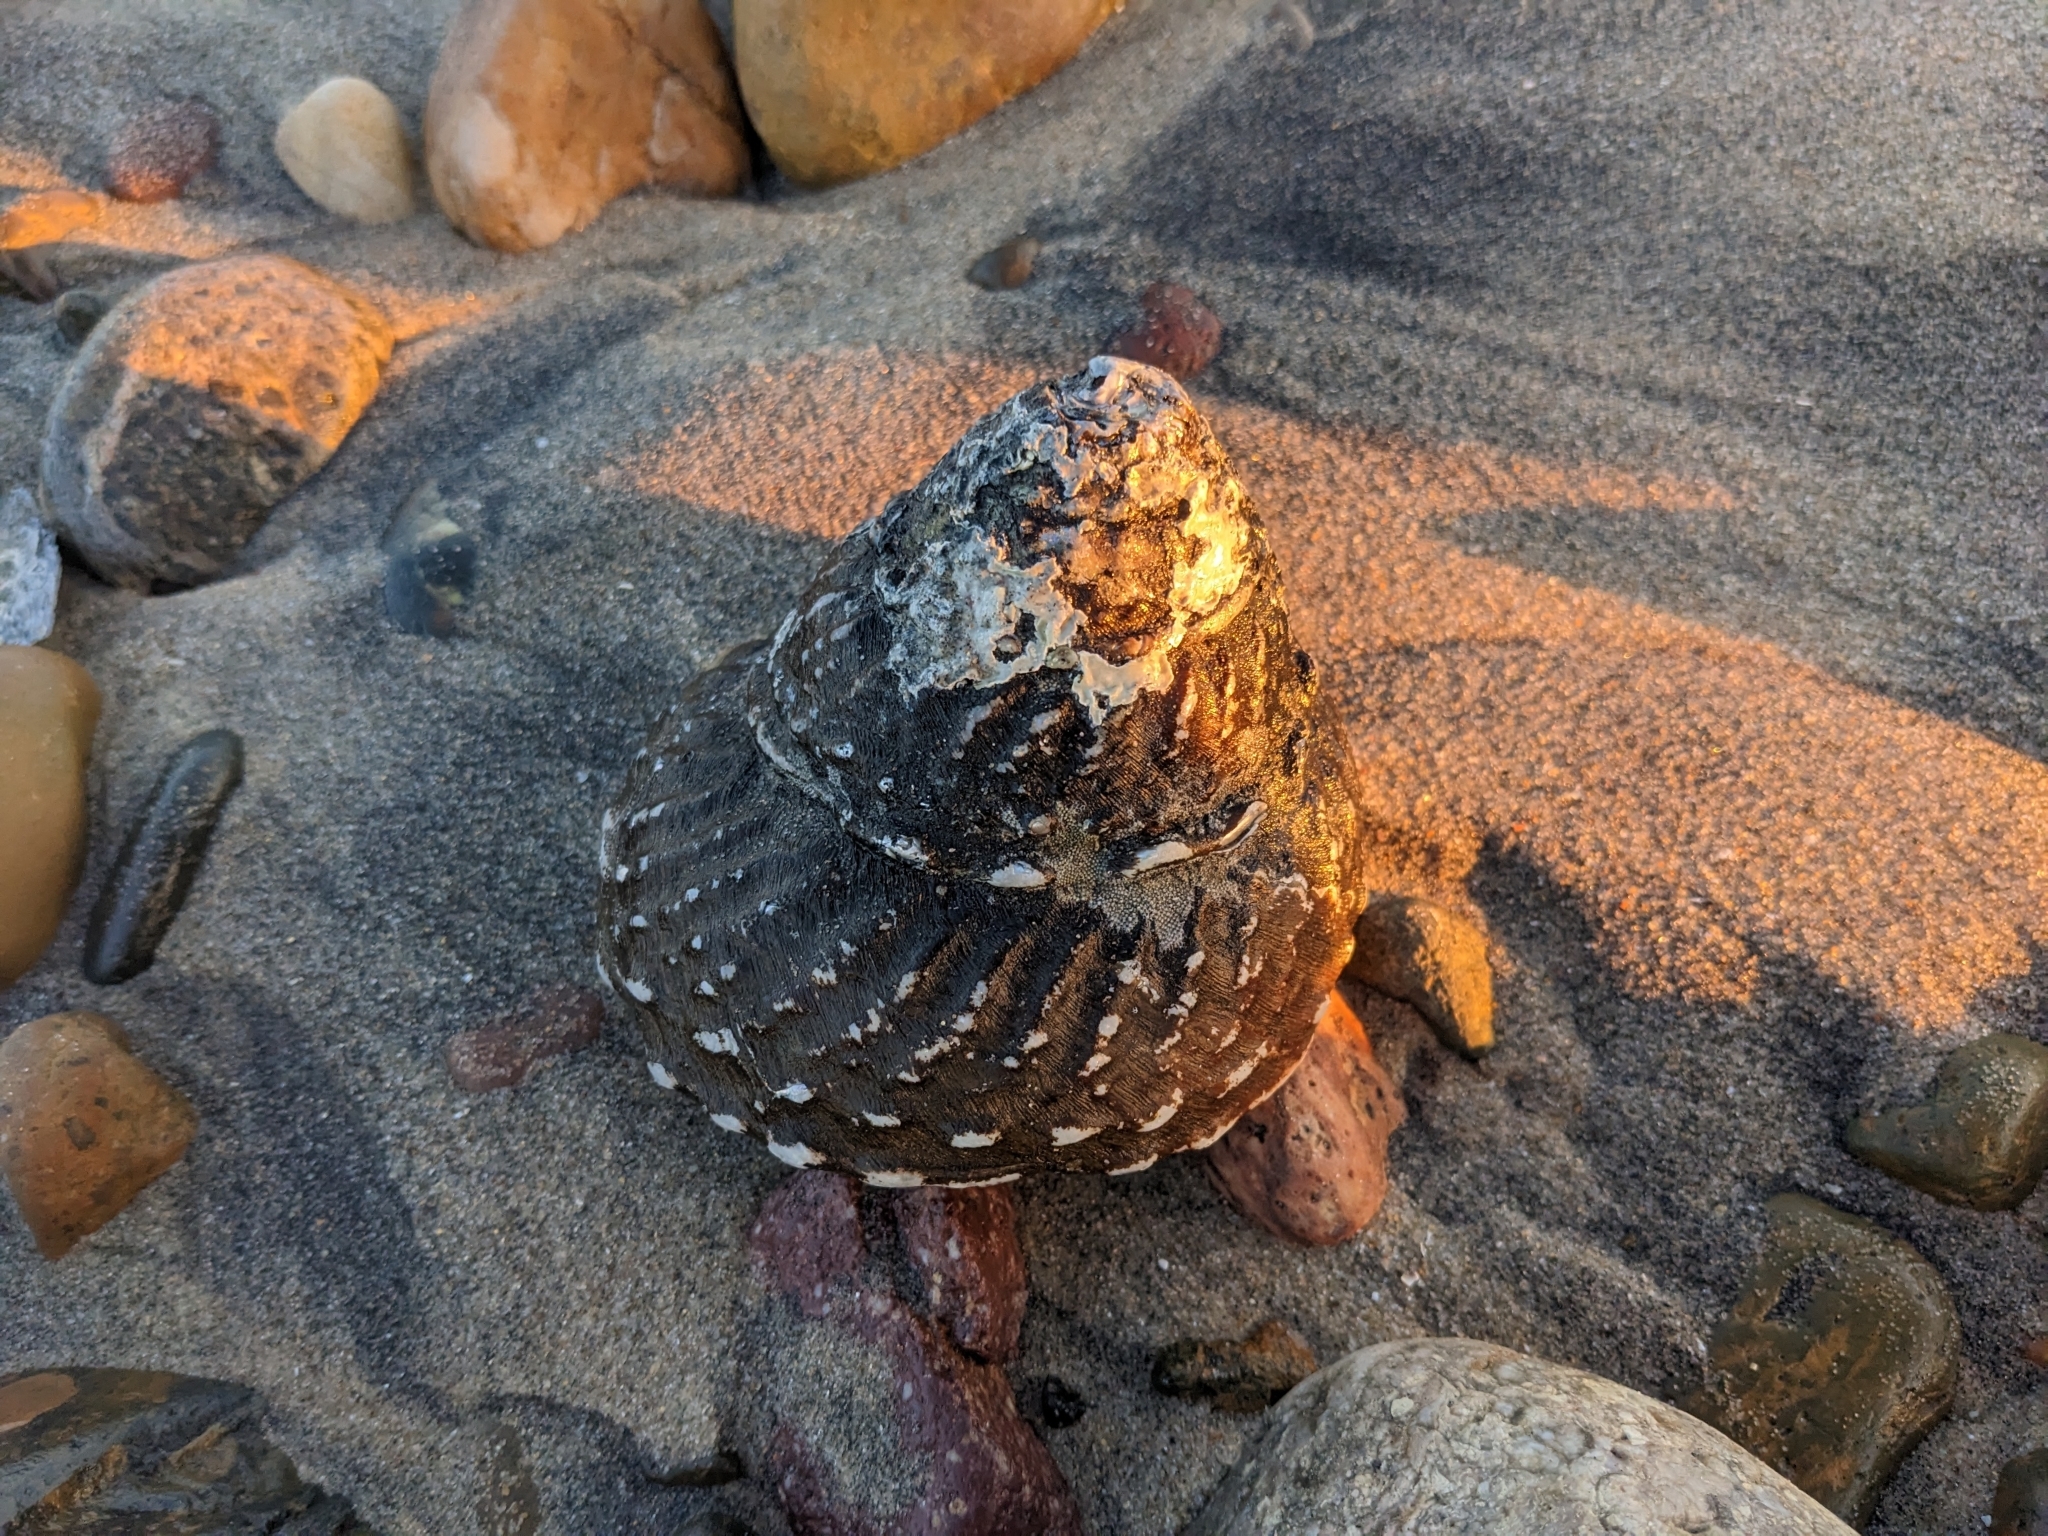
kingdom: Animalia
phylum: Mollusca
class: Gastropoda
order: Trochida
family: Turbinidae
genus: Megastraea
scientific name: Megastraea undosa
